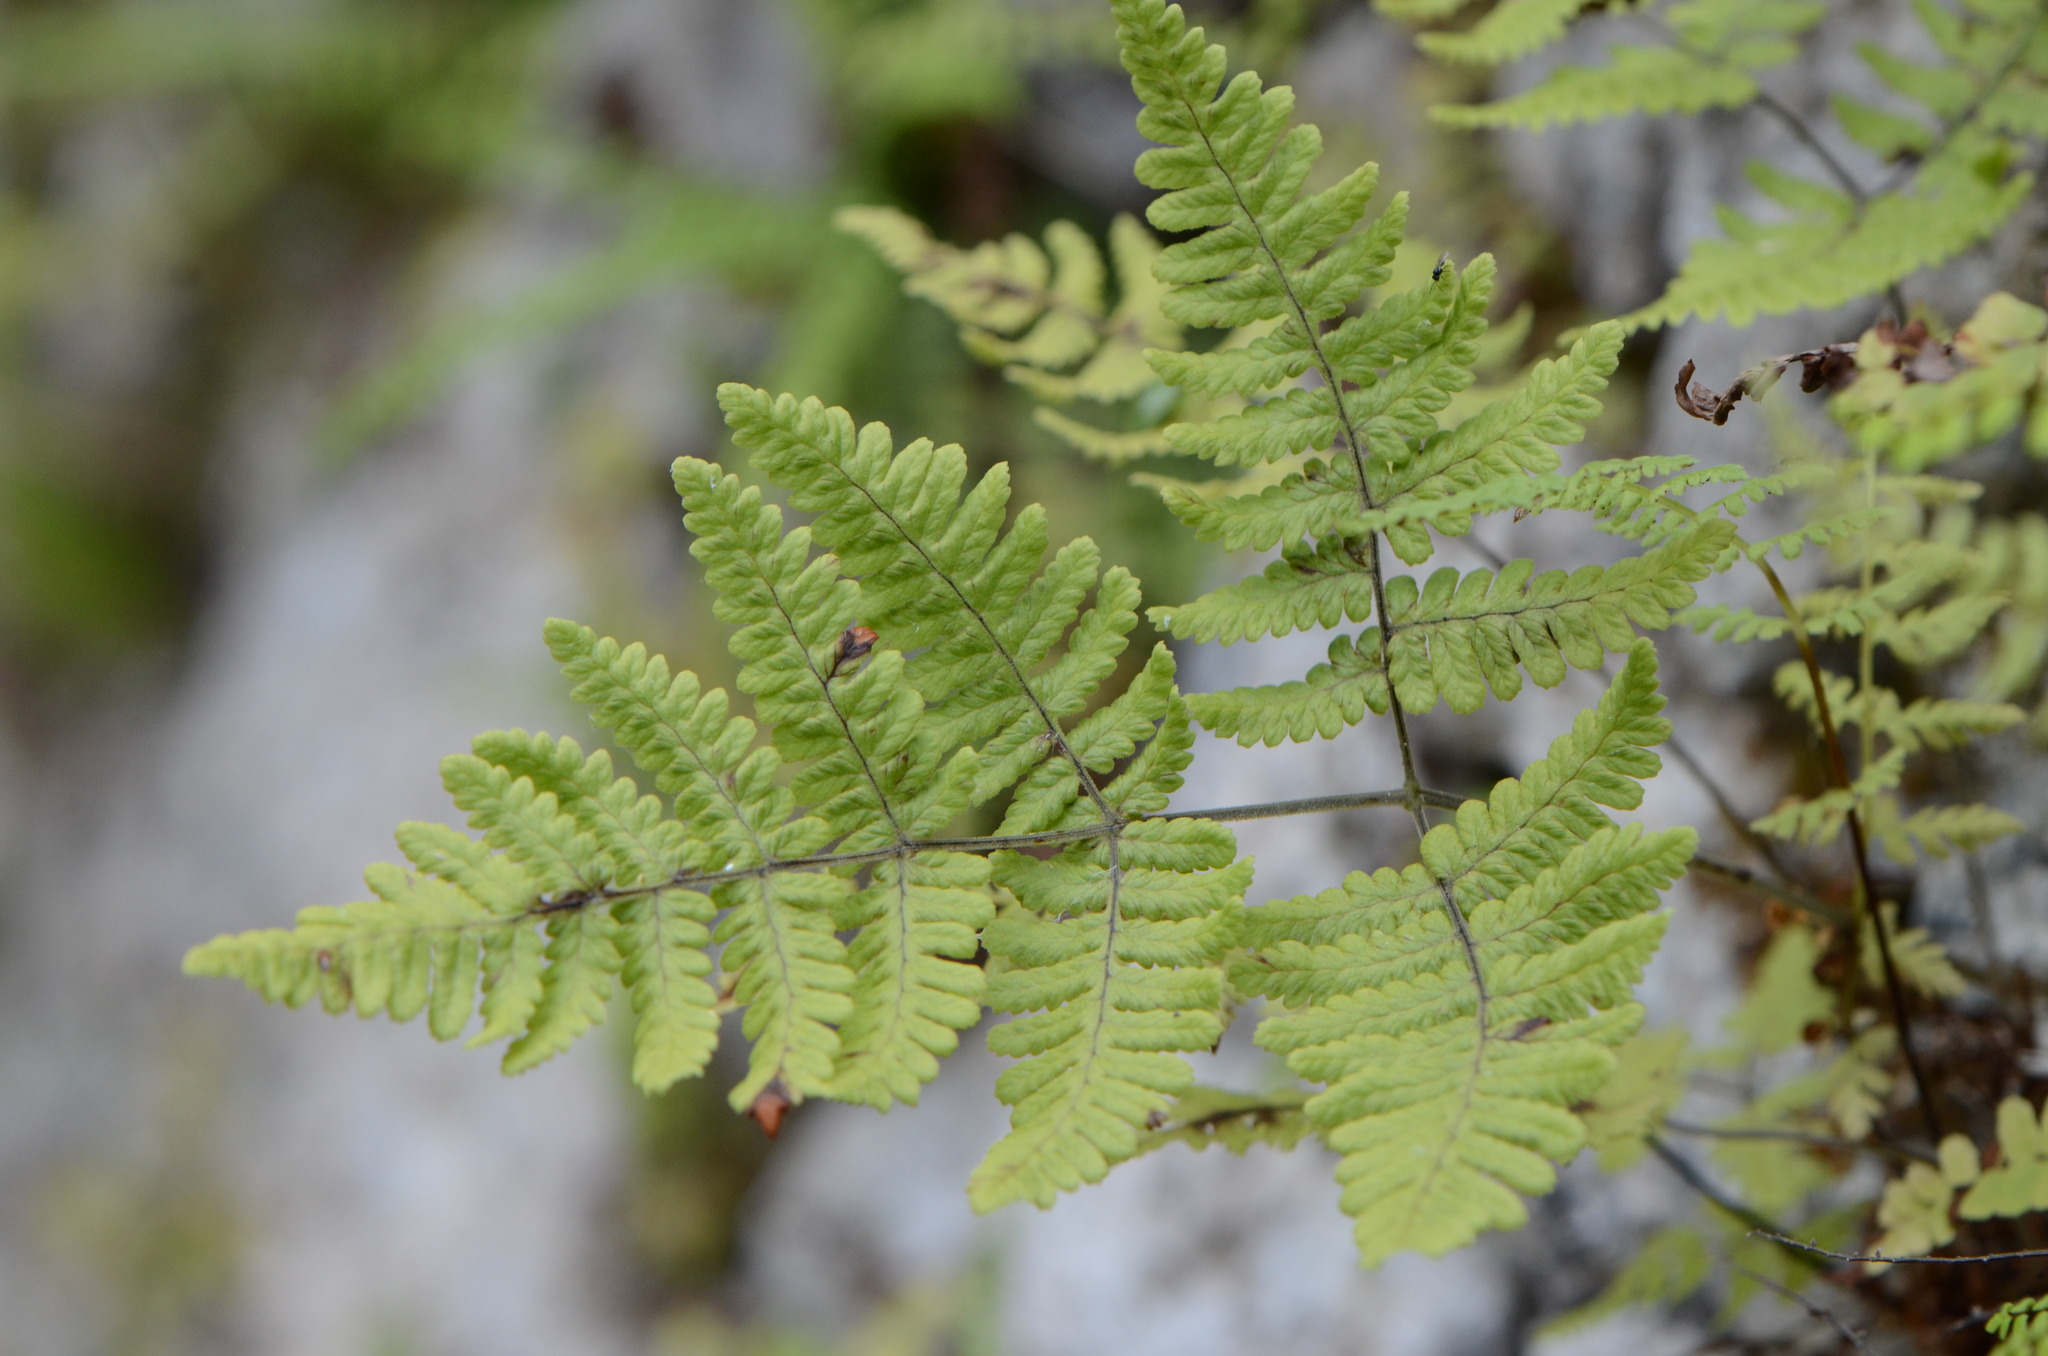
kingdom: Plantae
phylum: Tracheophyta
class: Polypodiopsida
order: Polypodiales
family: Cystopteridaceae
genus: Gymnocarpium
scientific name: Gymnocarpium robertianum
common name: Limestone fern
